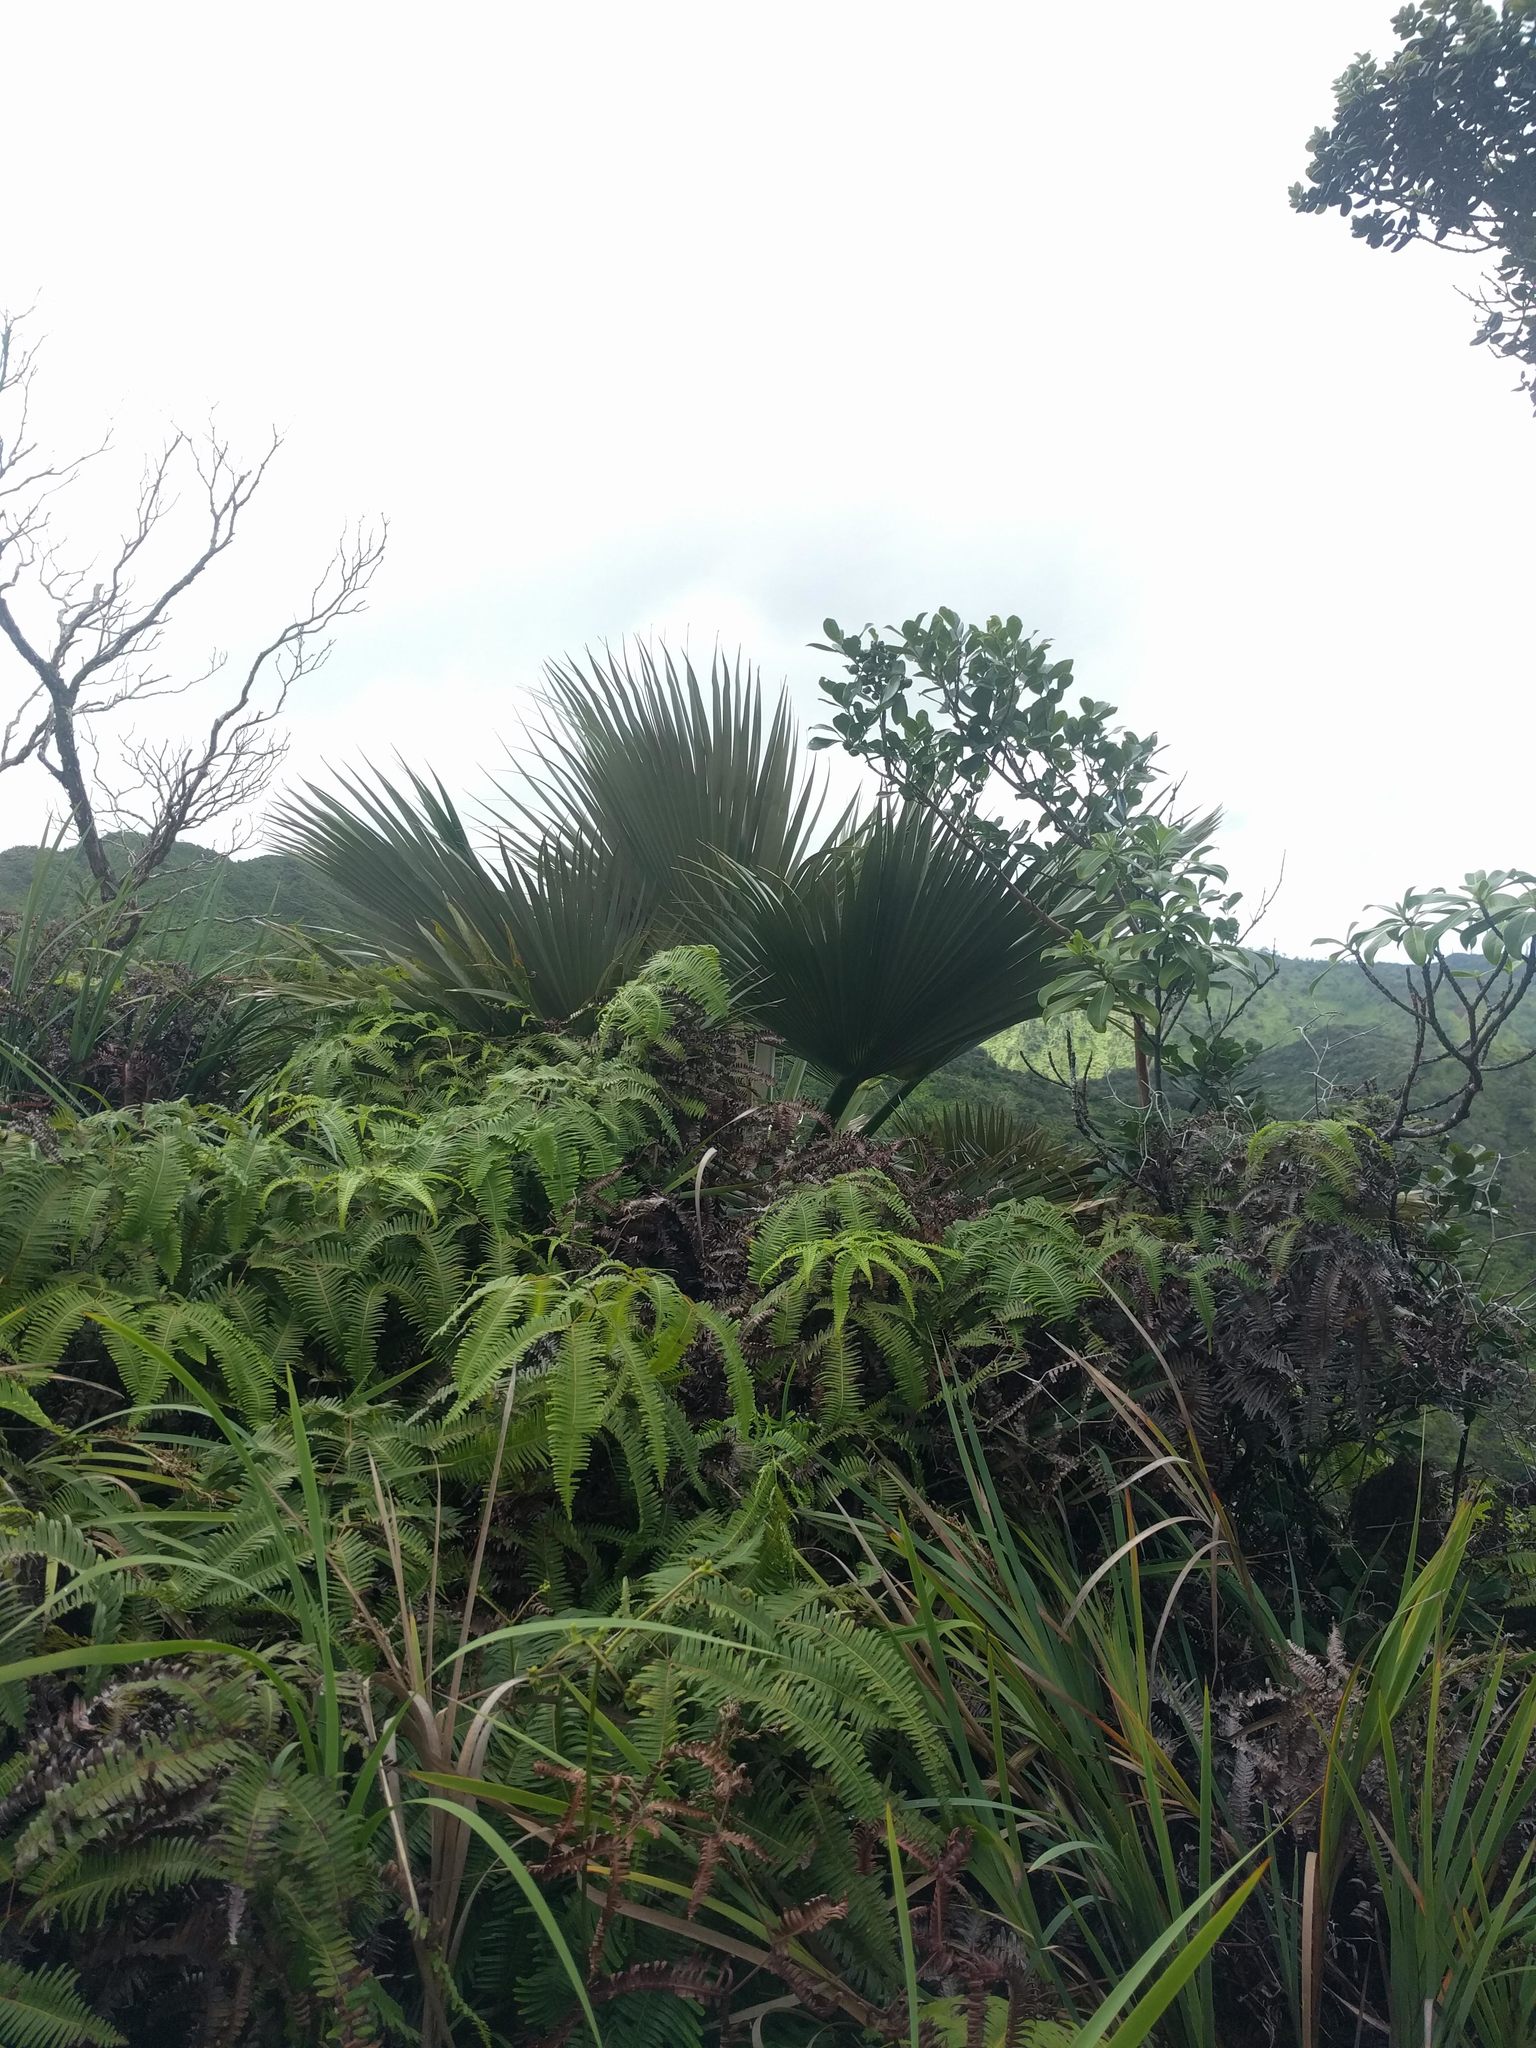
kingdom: Plantae
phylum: Tracheophyta
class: Liliopsida
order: Arecales
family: Arecaceae
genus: Pritchardia
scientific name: Pritchardia martii
